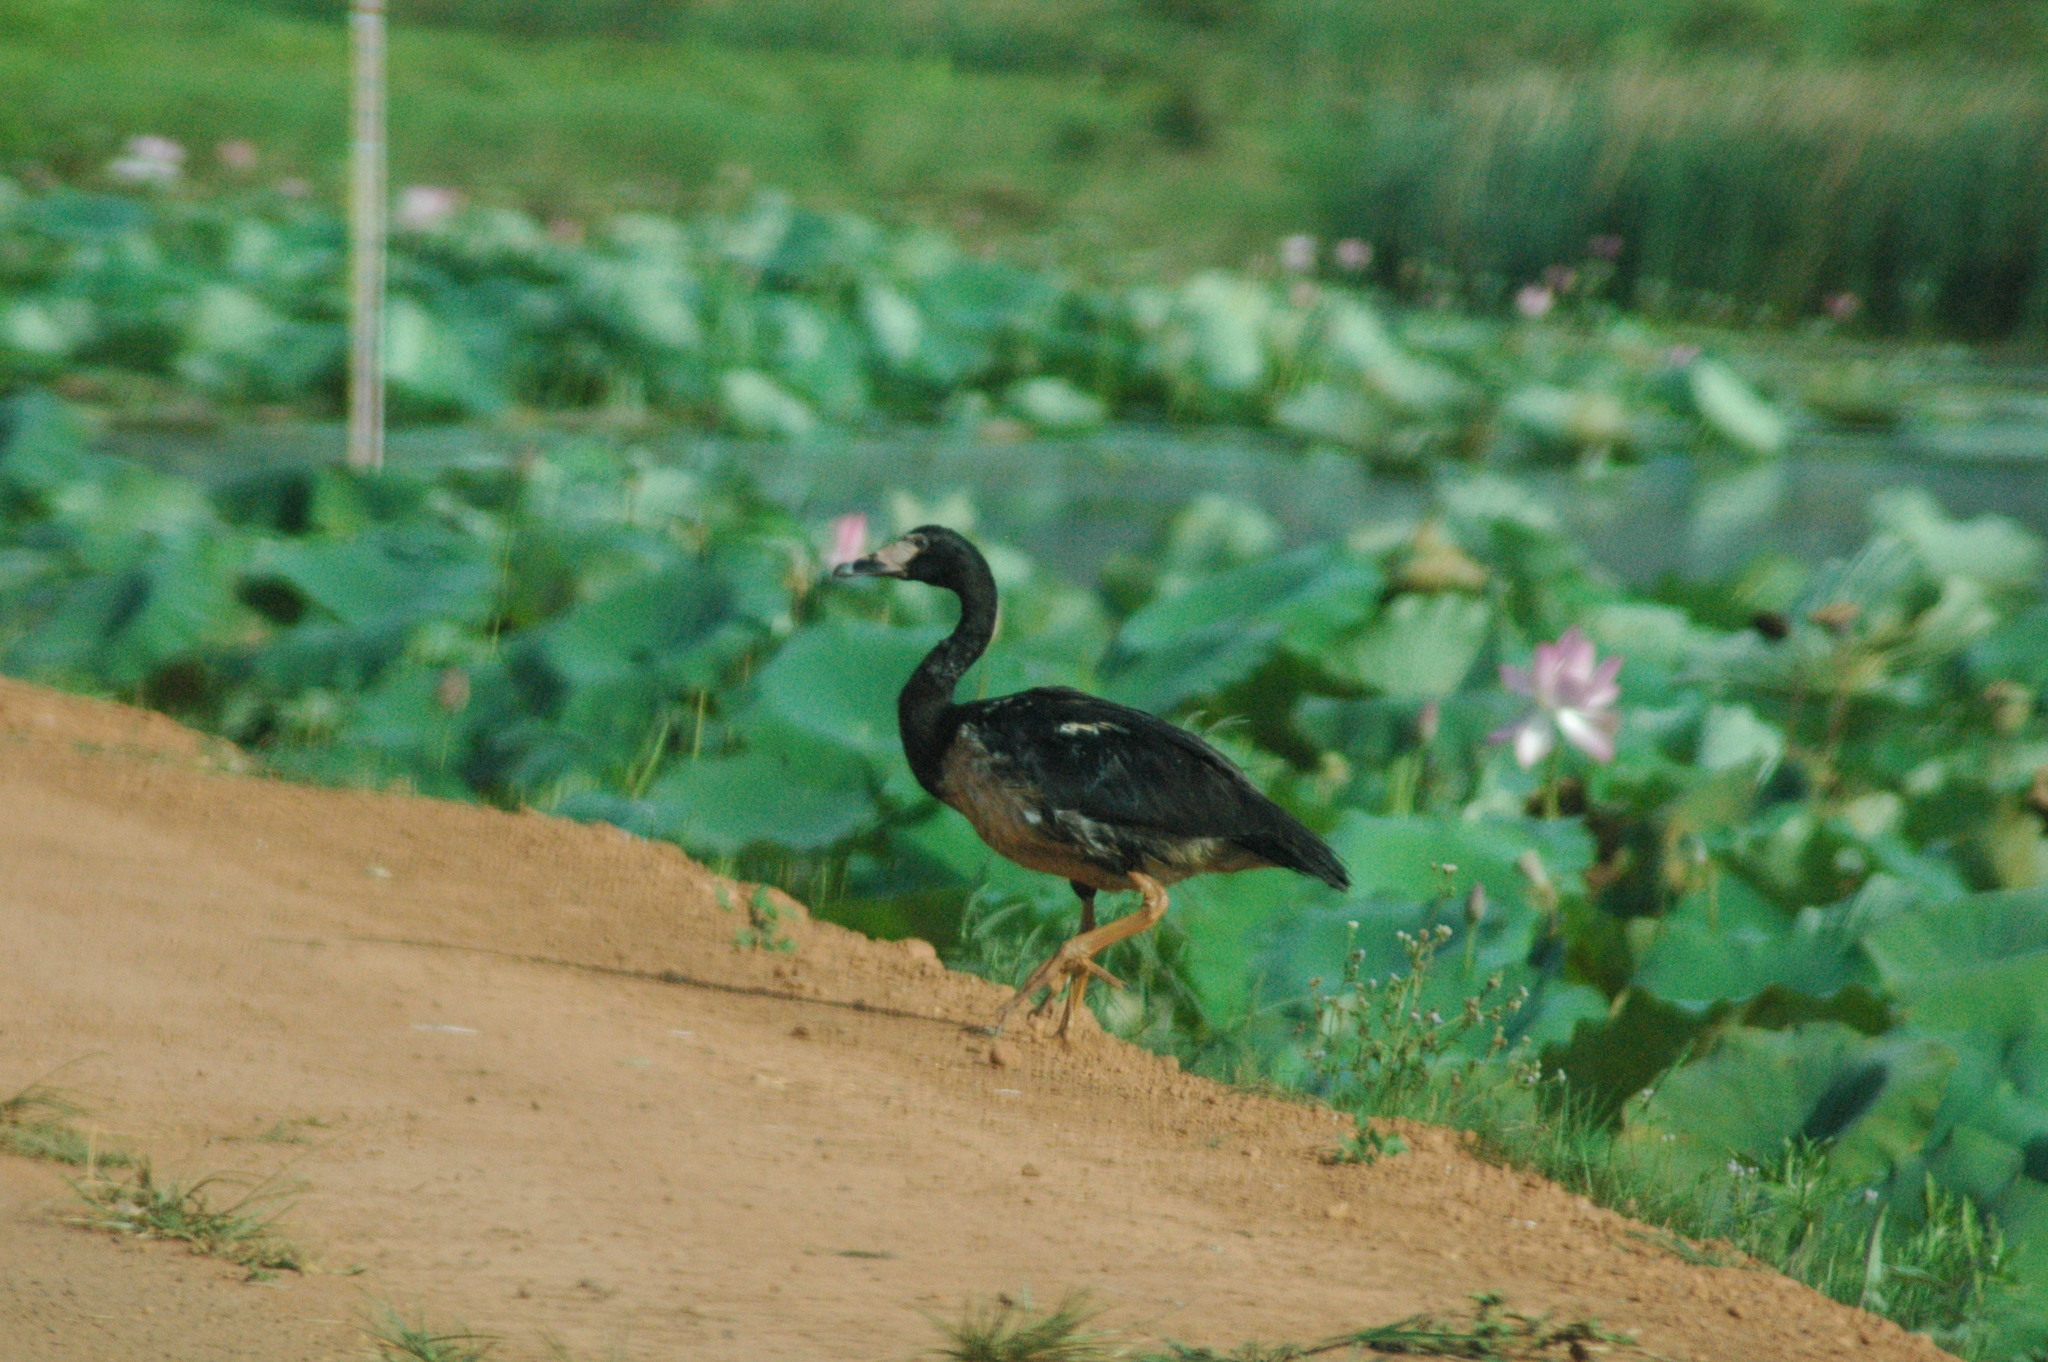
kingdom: Animalia
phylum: Chordata
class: Aves
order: Anseriformes
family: Anseranatidae
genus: Anseranas
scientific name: Anseranas semipalmata
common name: Magpie goose
